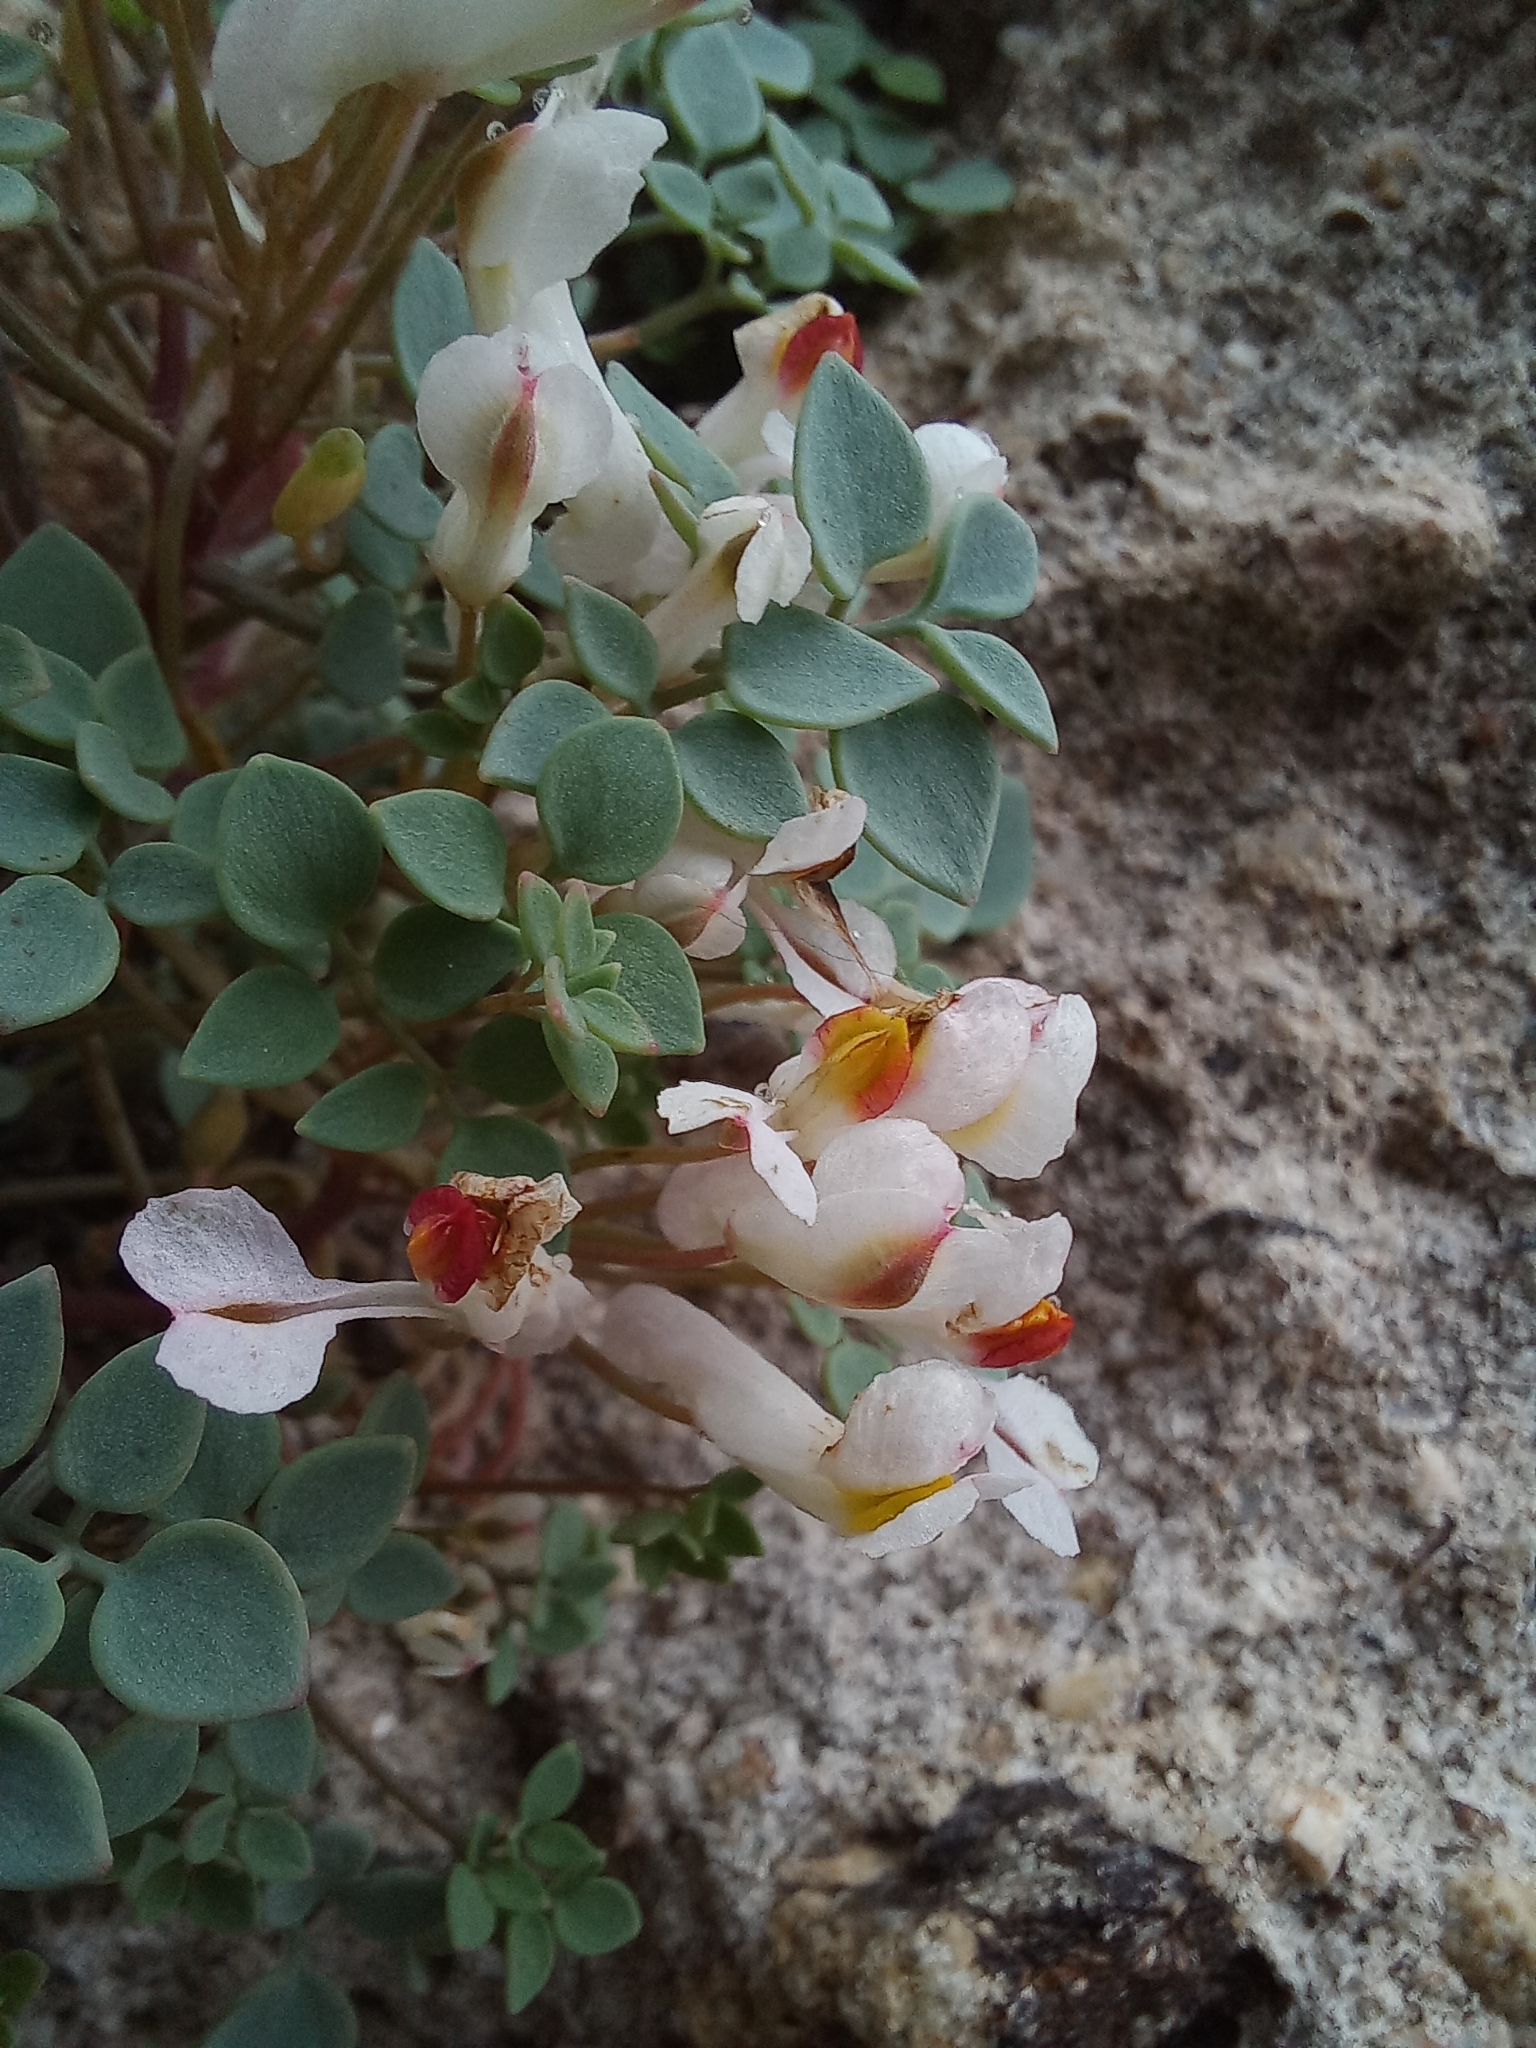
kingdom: Plantae
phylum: Tracheophyta
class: Magnoliopsida
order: Ranunculales
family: Papaveraceae
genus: Sarcocapnos
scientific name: Sarcocapnos enneaphylla
